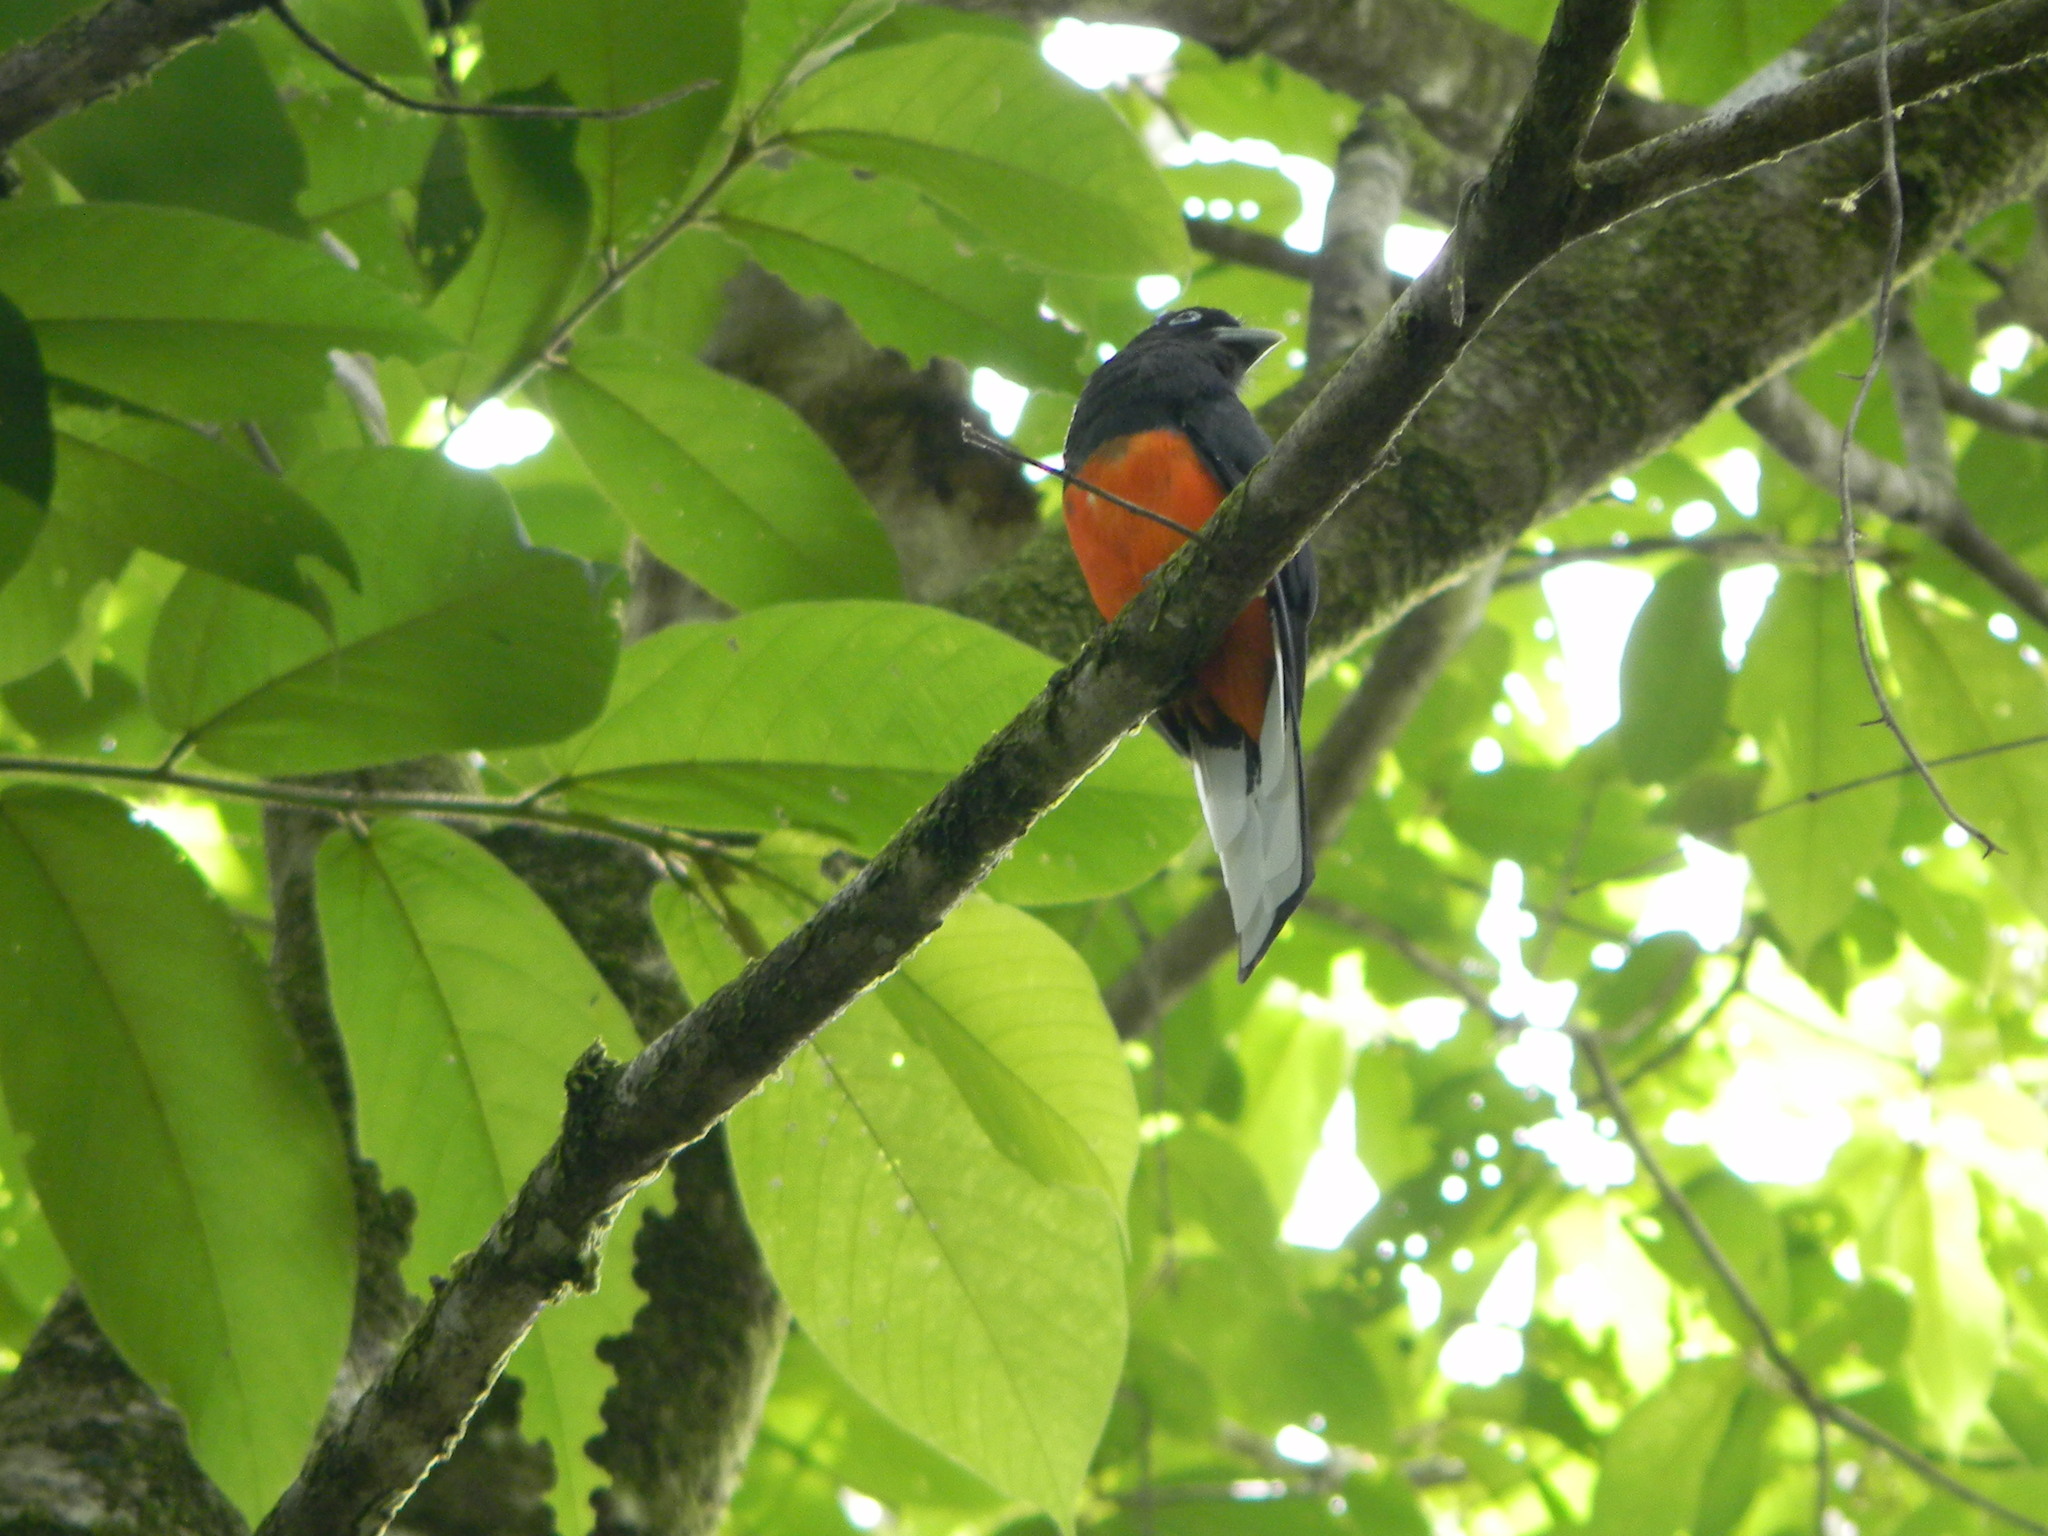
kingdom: Animalia
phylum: Chordata
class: Aves
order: Trogoniformes
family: Trogonidae
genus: Trogon
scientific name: Trogon bairdii
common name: Baird's trogon
